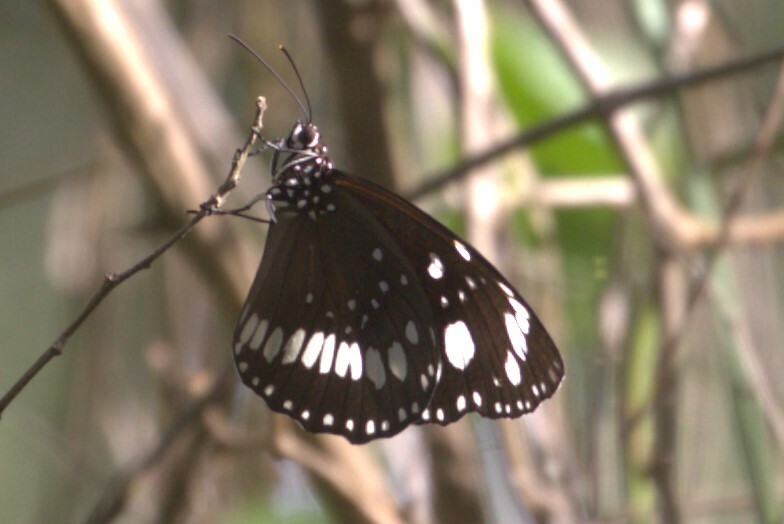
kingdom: Animalia
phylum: Arthropoda
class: Insecta
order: Lepidoptera
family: Nymphalidae
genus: Euploea
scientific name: Euploea core
